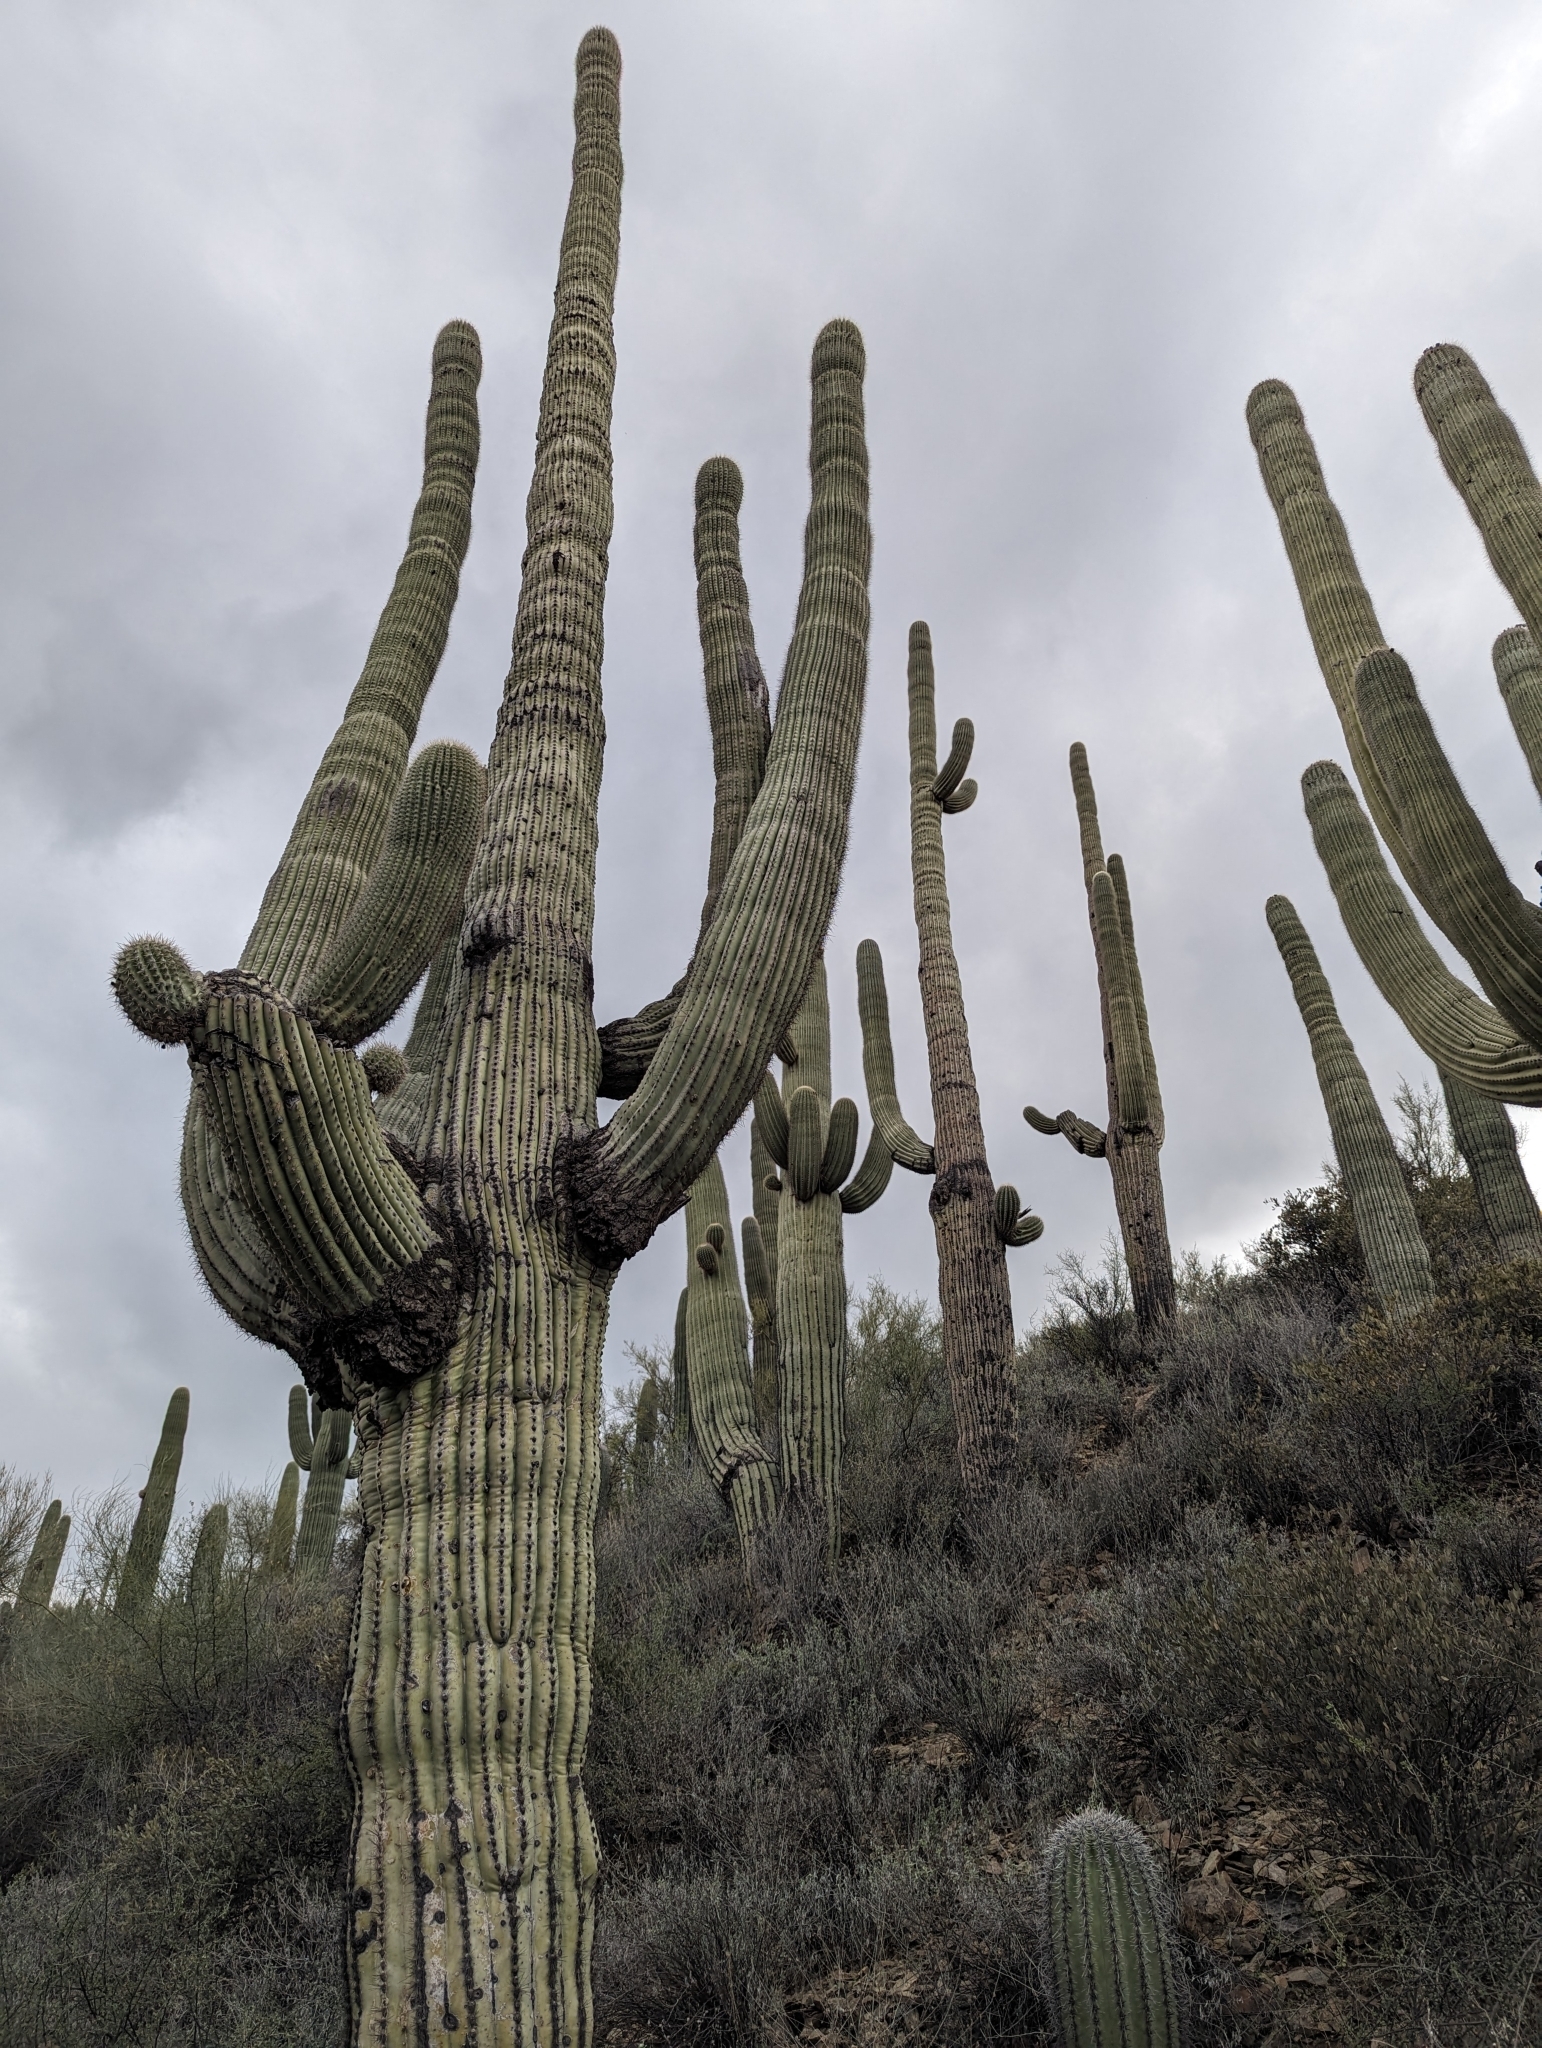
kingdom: Plantae
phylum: Tracheophyta
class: Magnoliopsida
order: Caryophyllales
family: Cactaceae
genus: Carnegiea
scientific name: Carnegiea gigantea
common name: Saguaro
